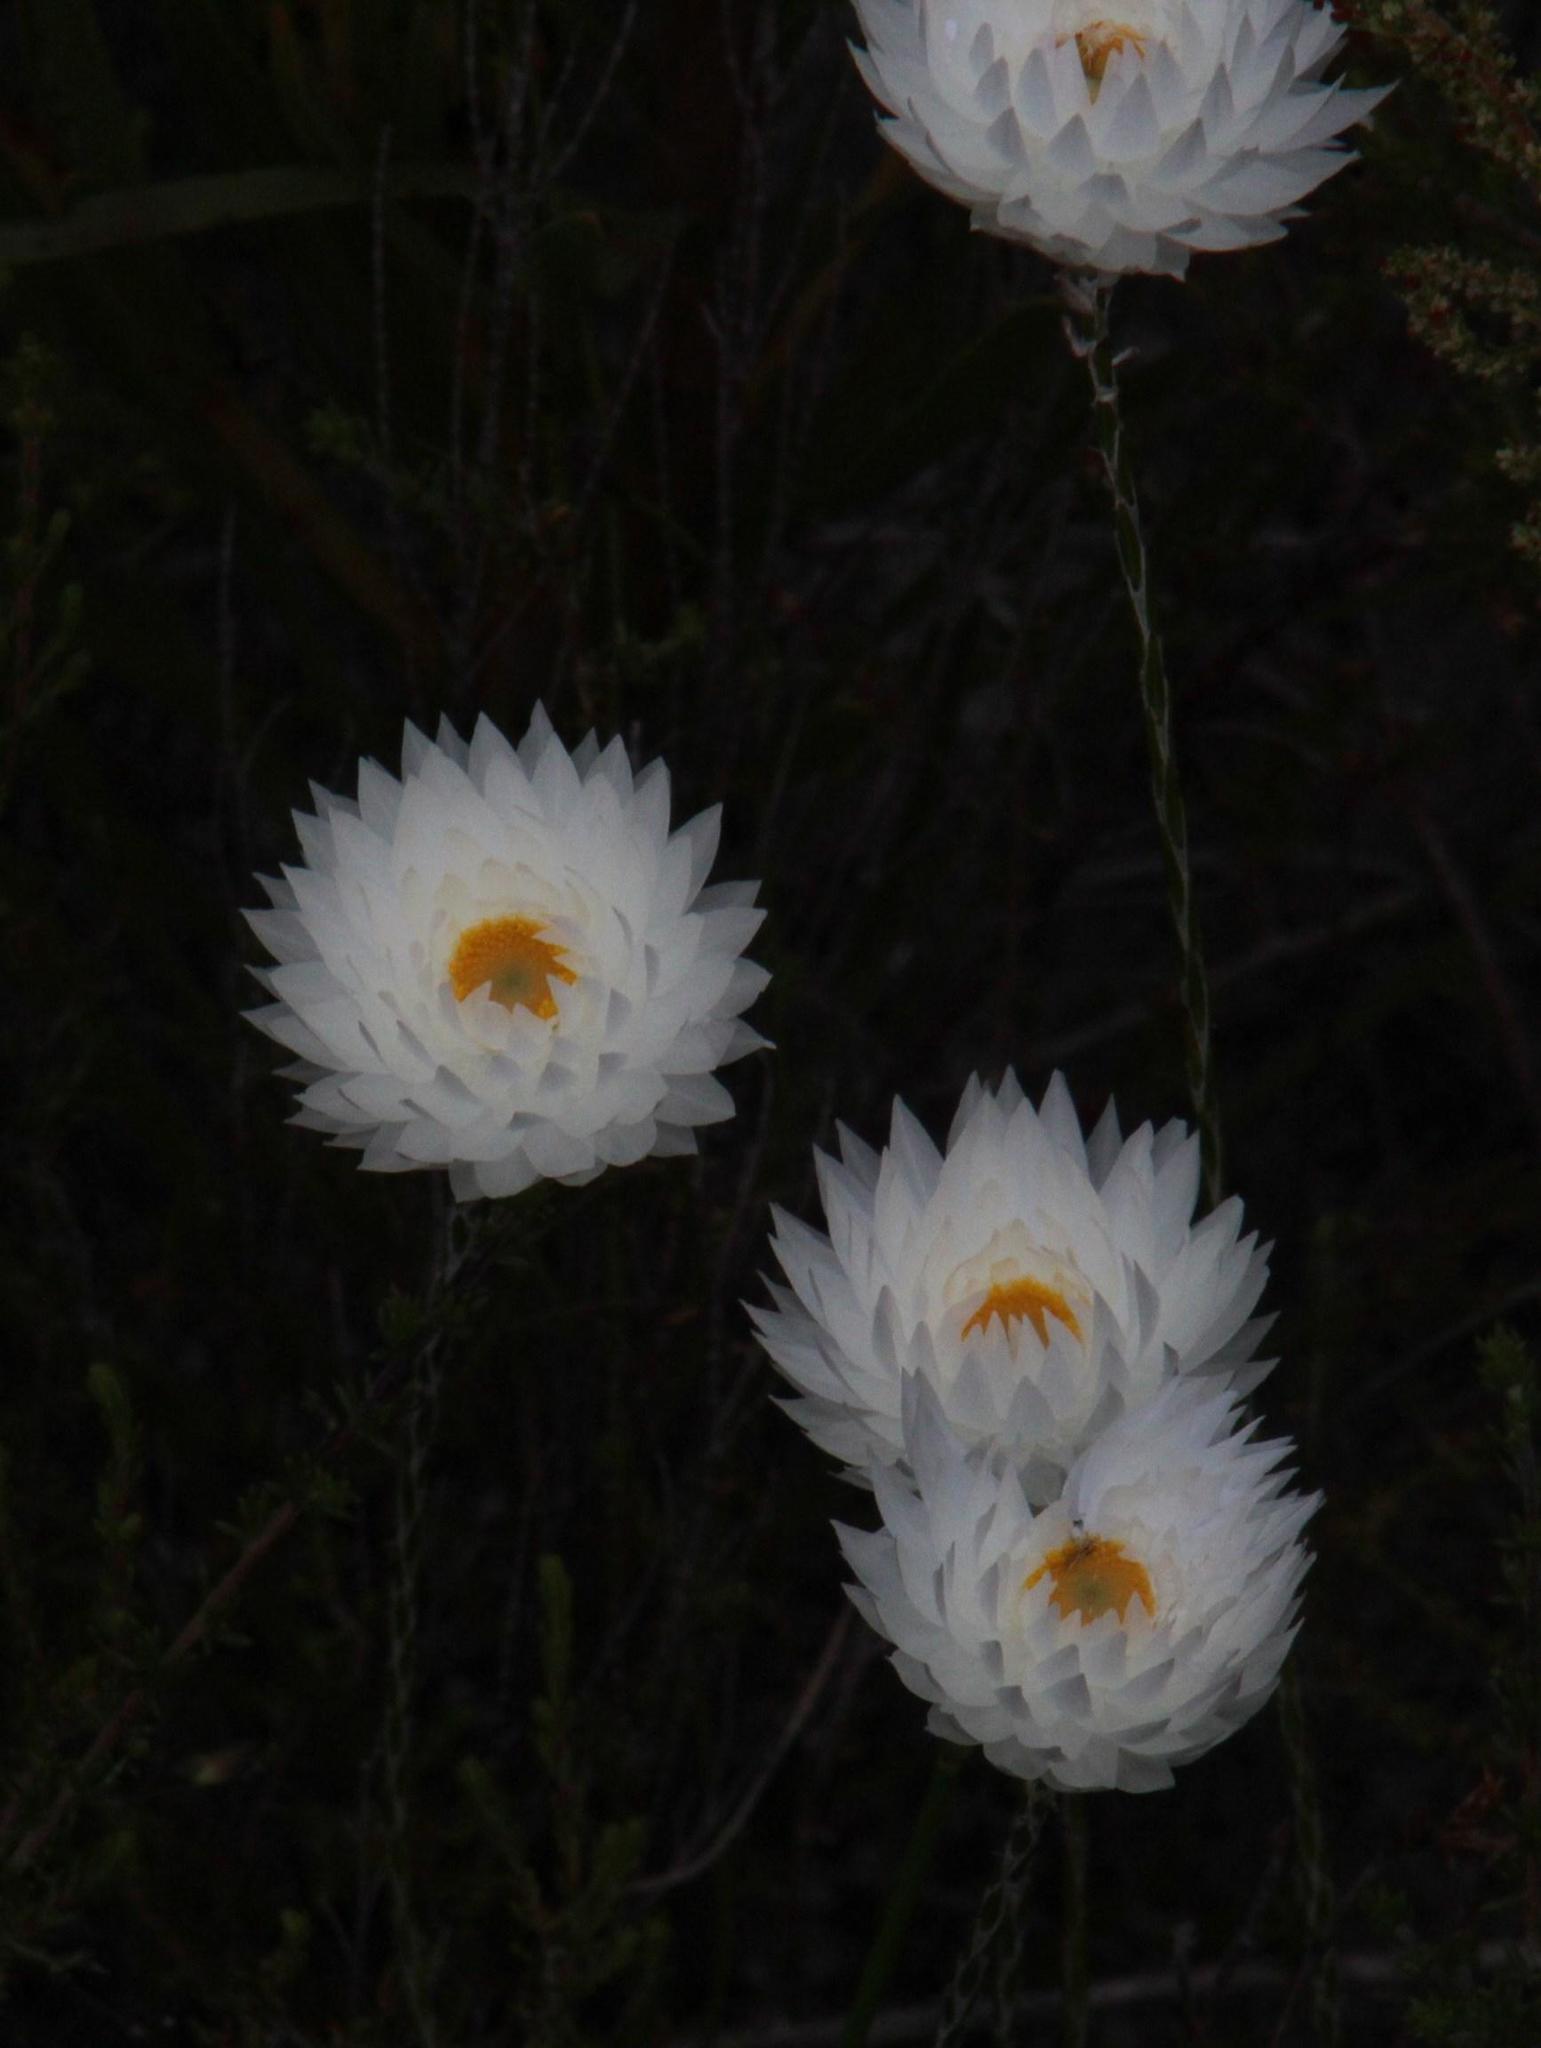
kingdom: Plantae
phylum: Tracheophyta
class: Magnoliopsida
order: Asterales
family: Asteraceae
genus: Edmondia
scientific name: Edmondia sesamoides
